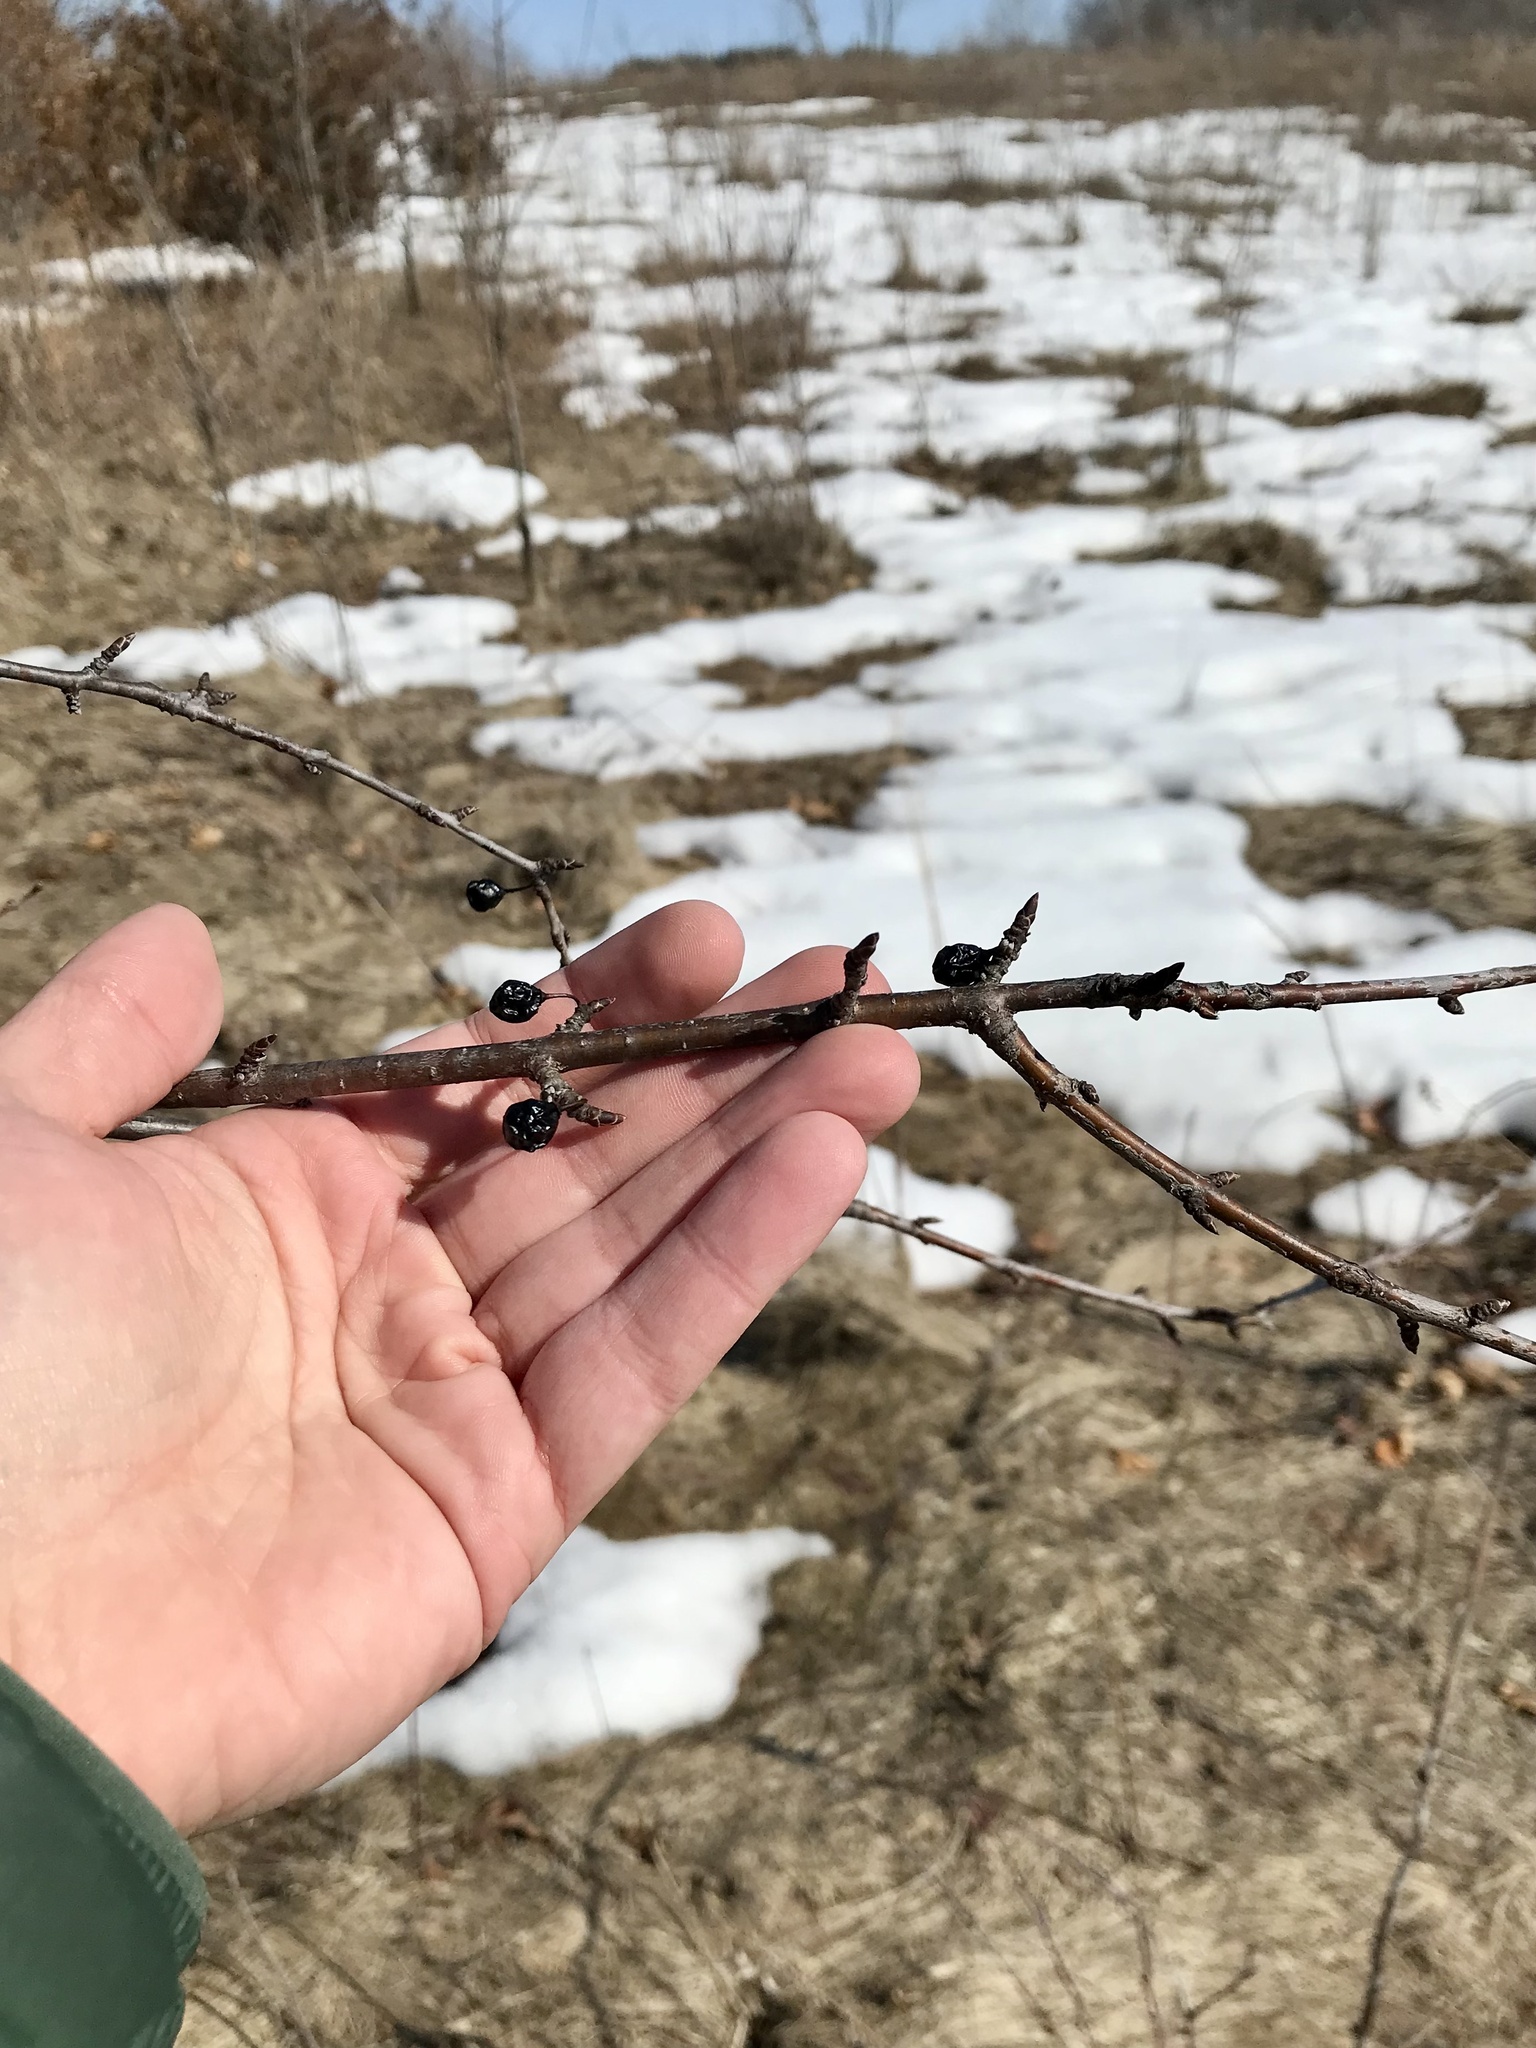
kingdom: Plantae
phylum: Tracheophyta
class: Magnoliopsida
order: Rosales
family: Rhamnaceae
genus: Rhamnus
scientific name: Rhamnus cathartica
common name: Common buckthorn
